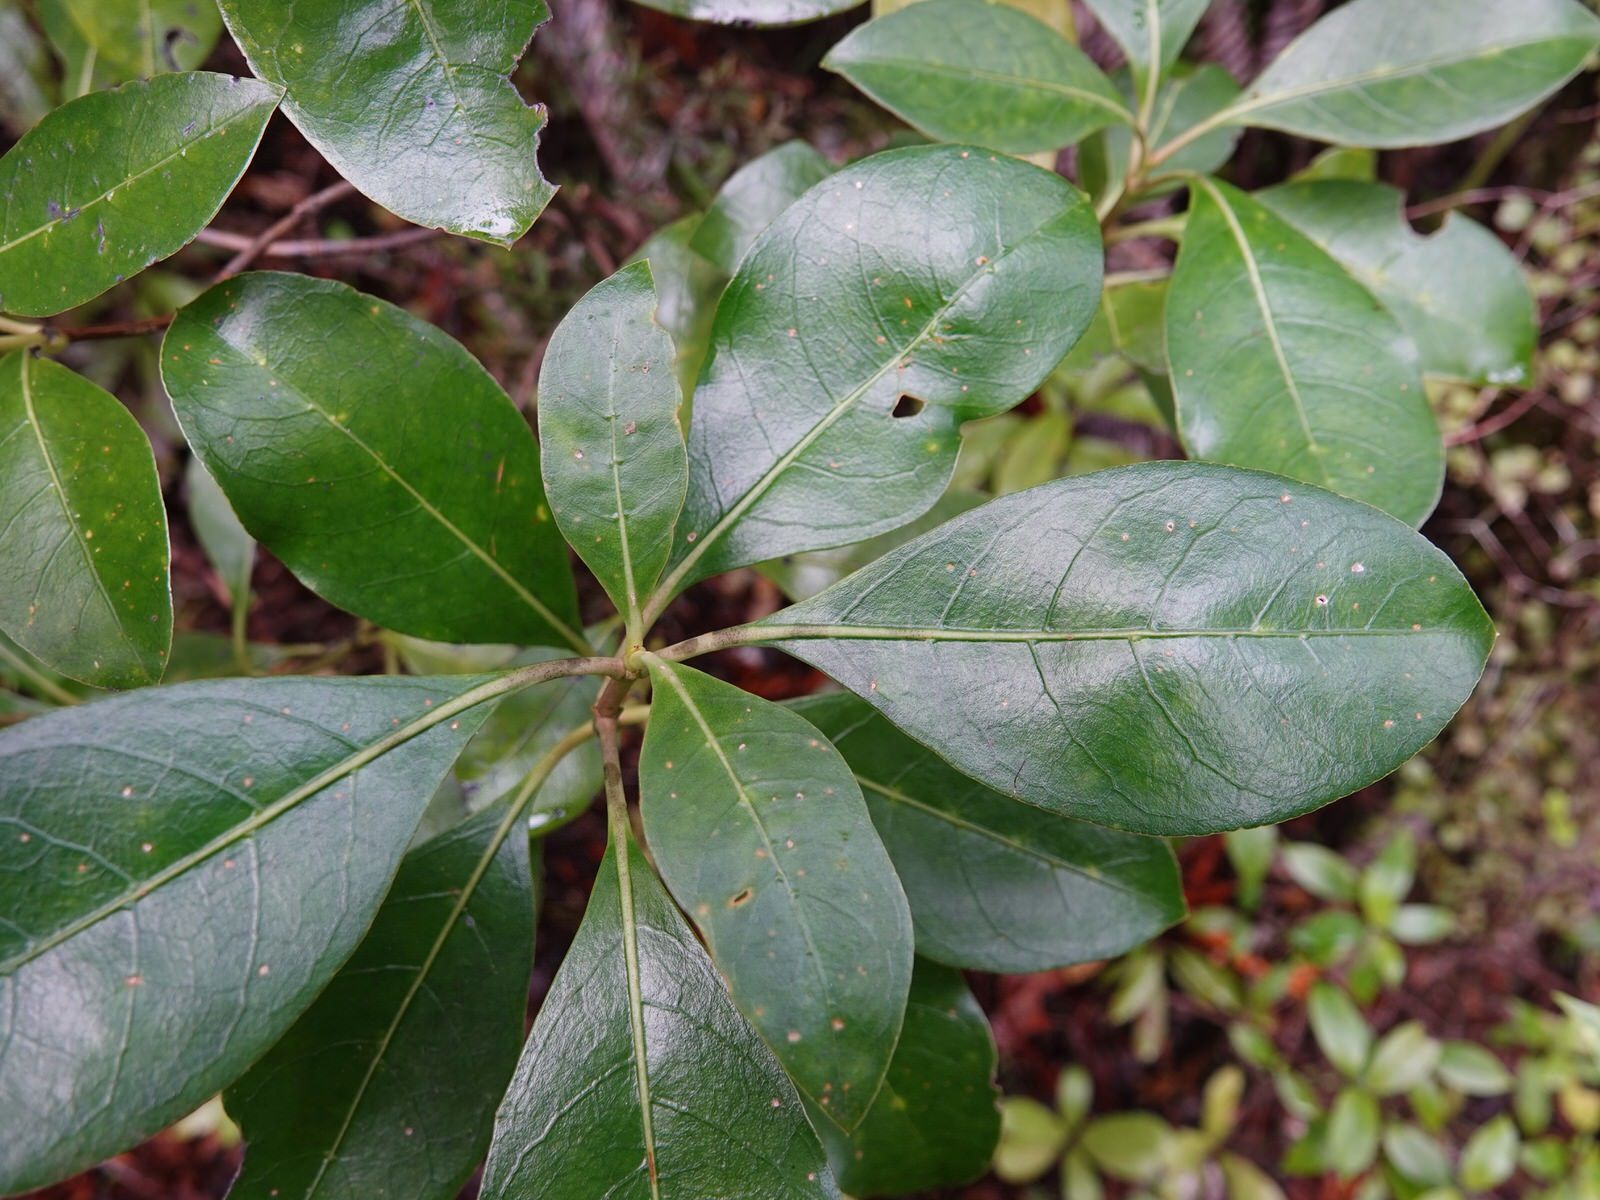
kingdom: Plantae
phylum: Tracheophyta
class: Magnoliopsida
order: Gentianales
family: Rubiaceae
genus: Coprosma
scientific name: Coprosma lucida
